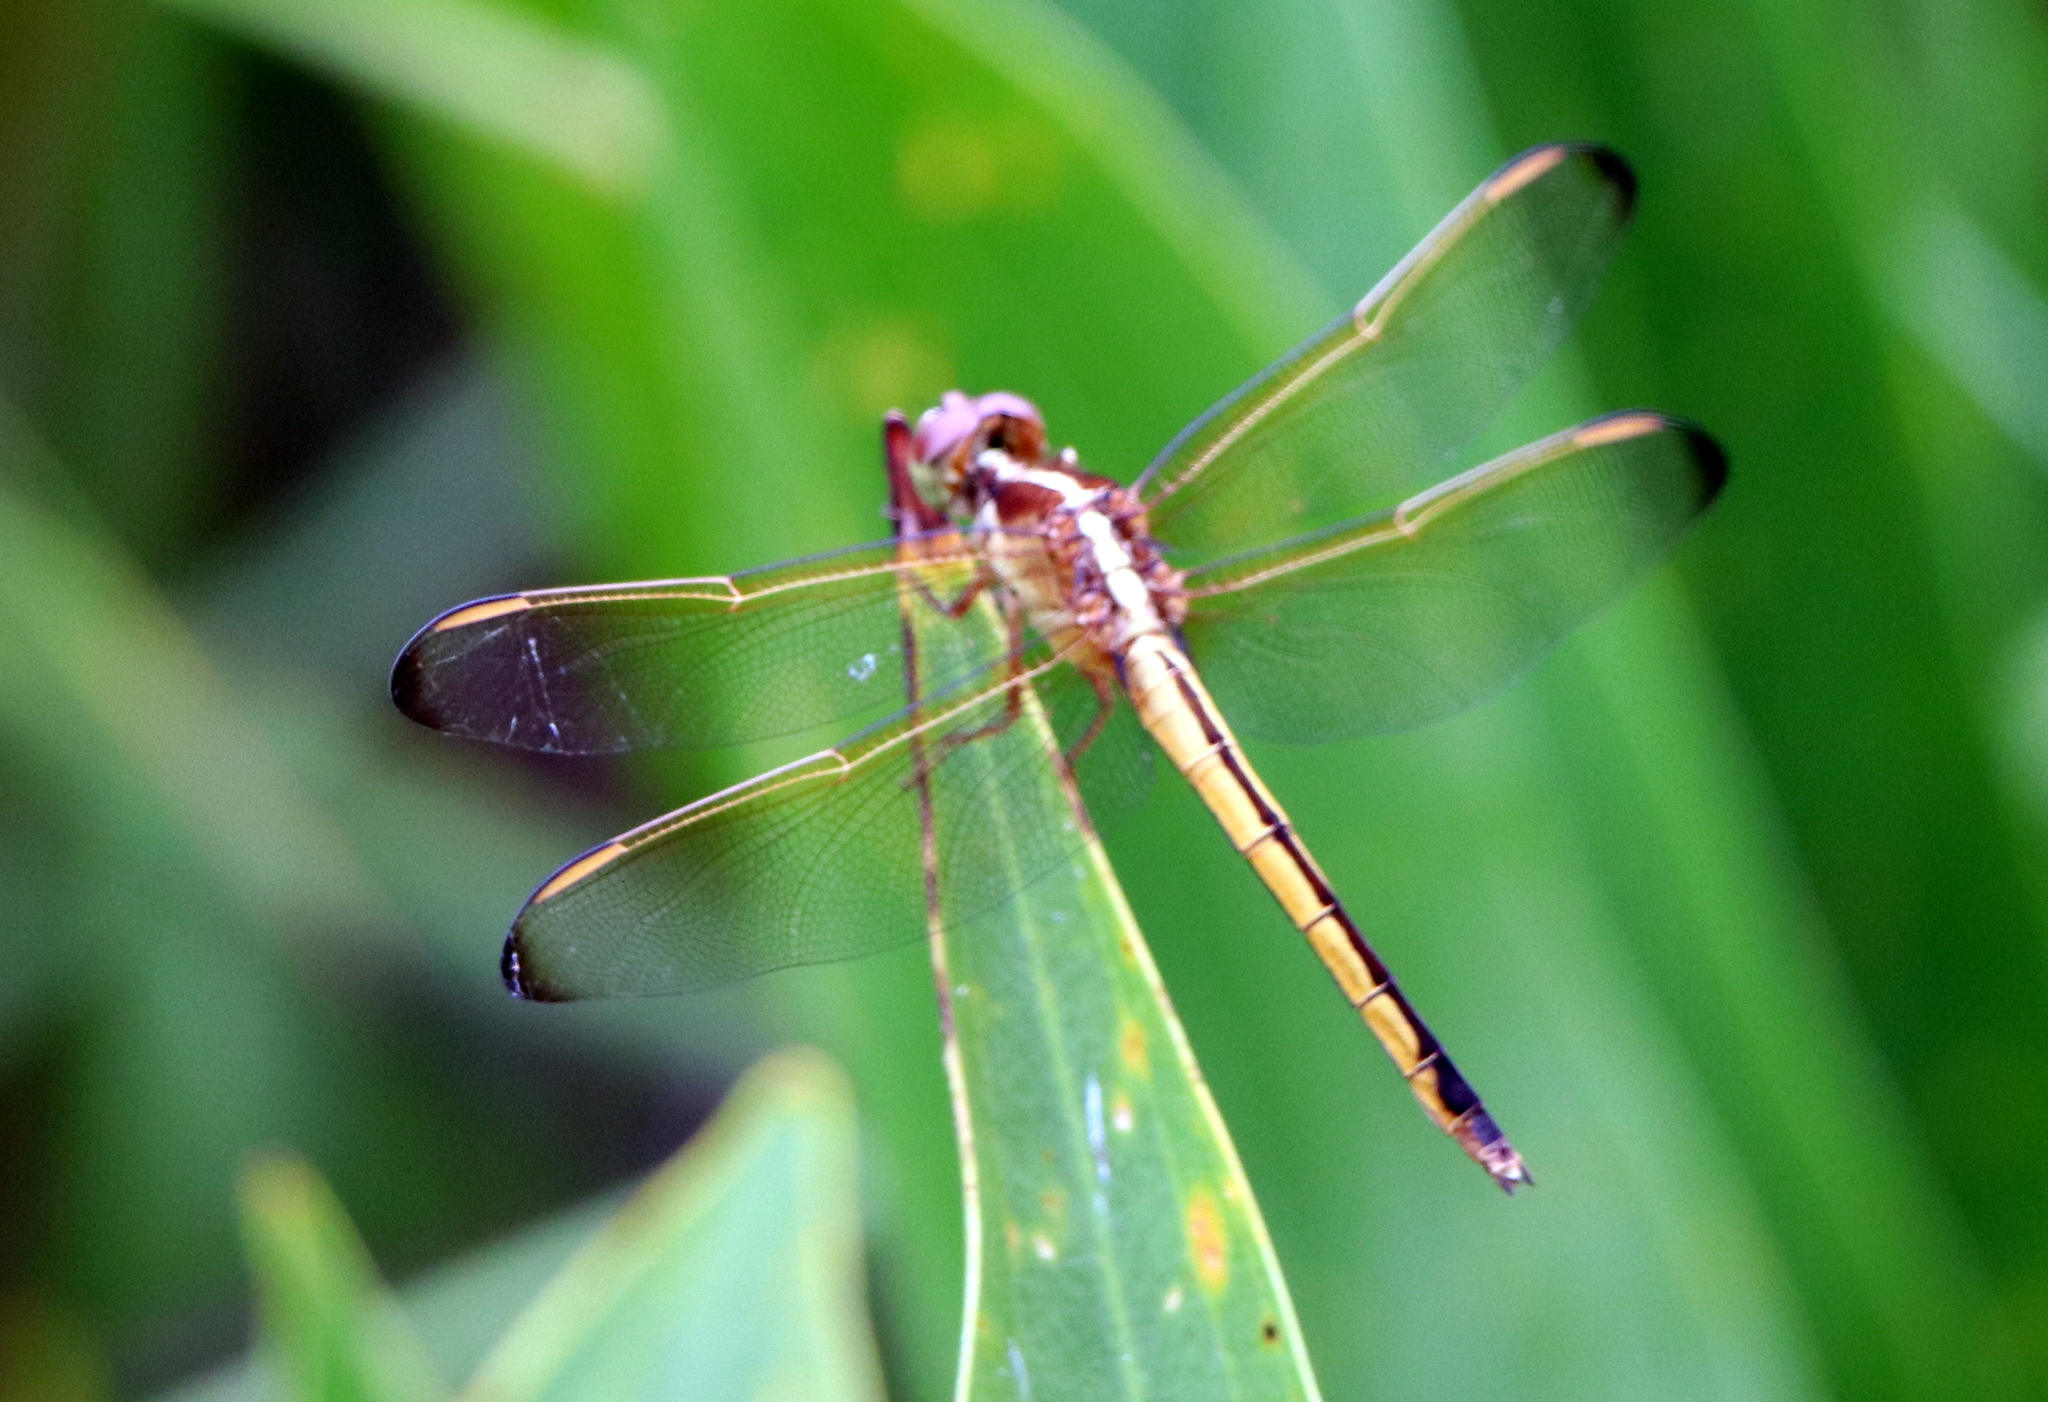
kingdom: Animalia
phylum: Arthropoda
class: Insecta
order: Odonata
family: Libellulidae
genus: Libellula
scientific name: Libellula needhami
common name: Needham's skimmer
